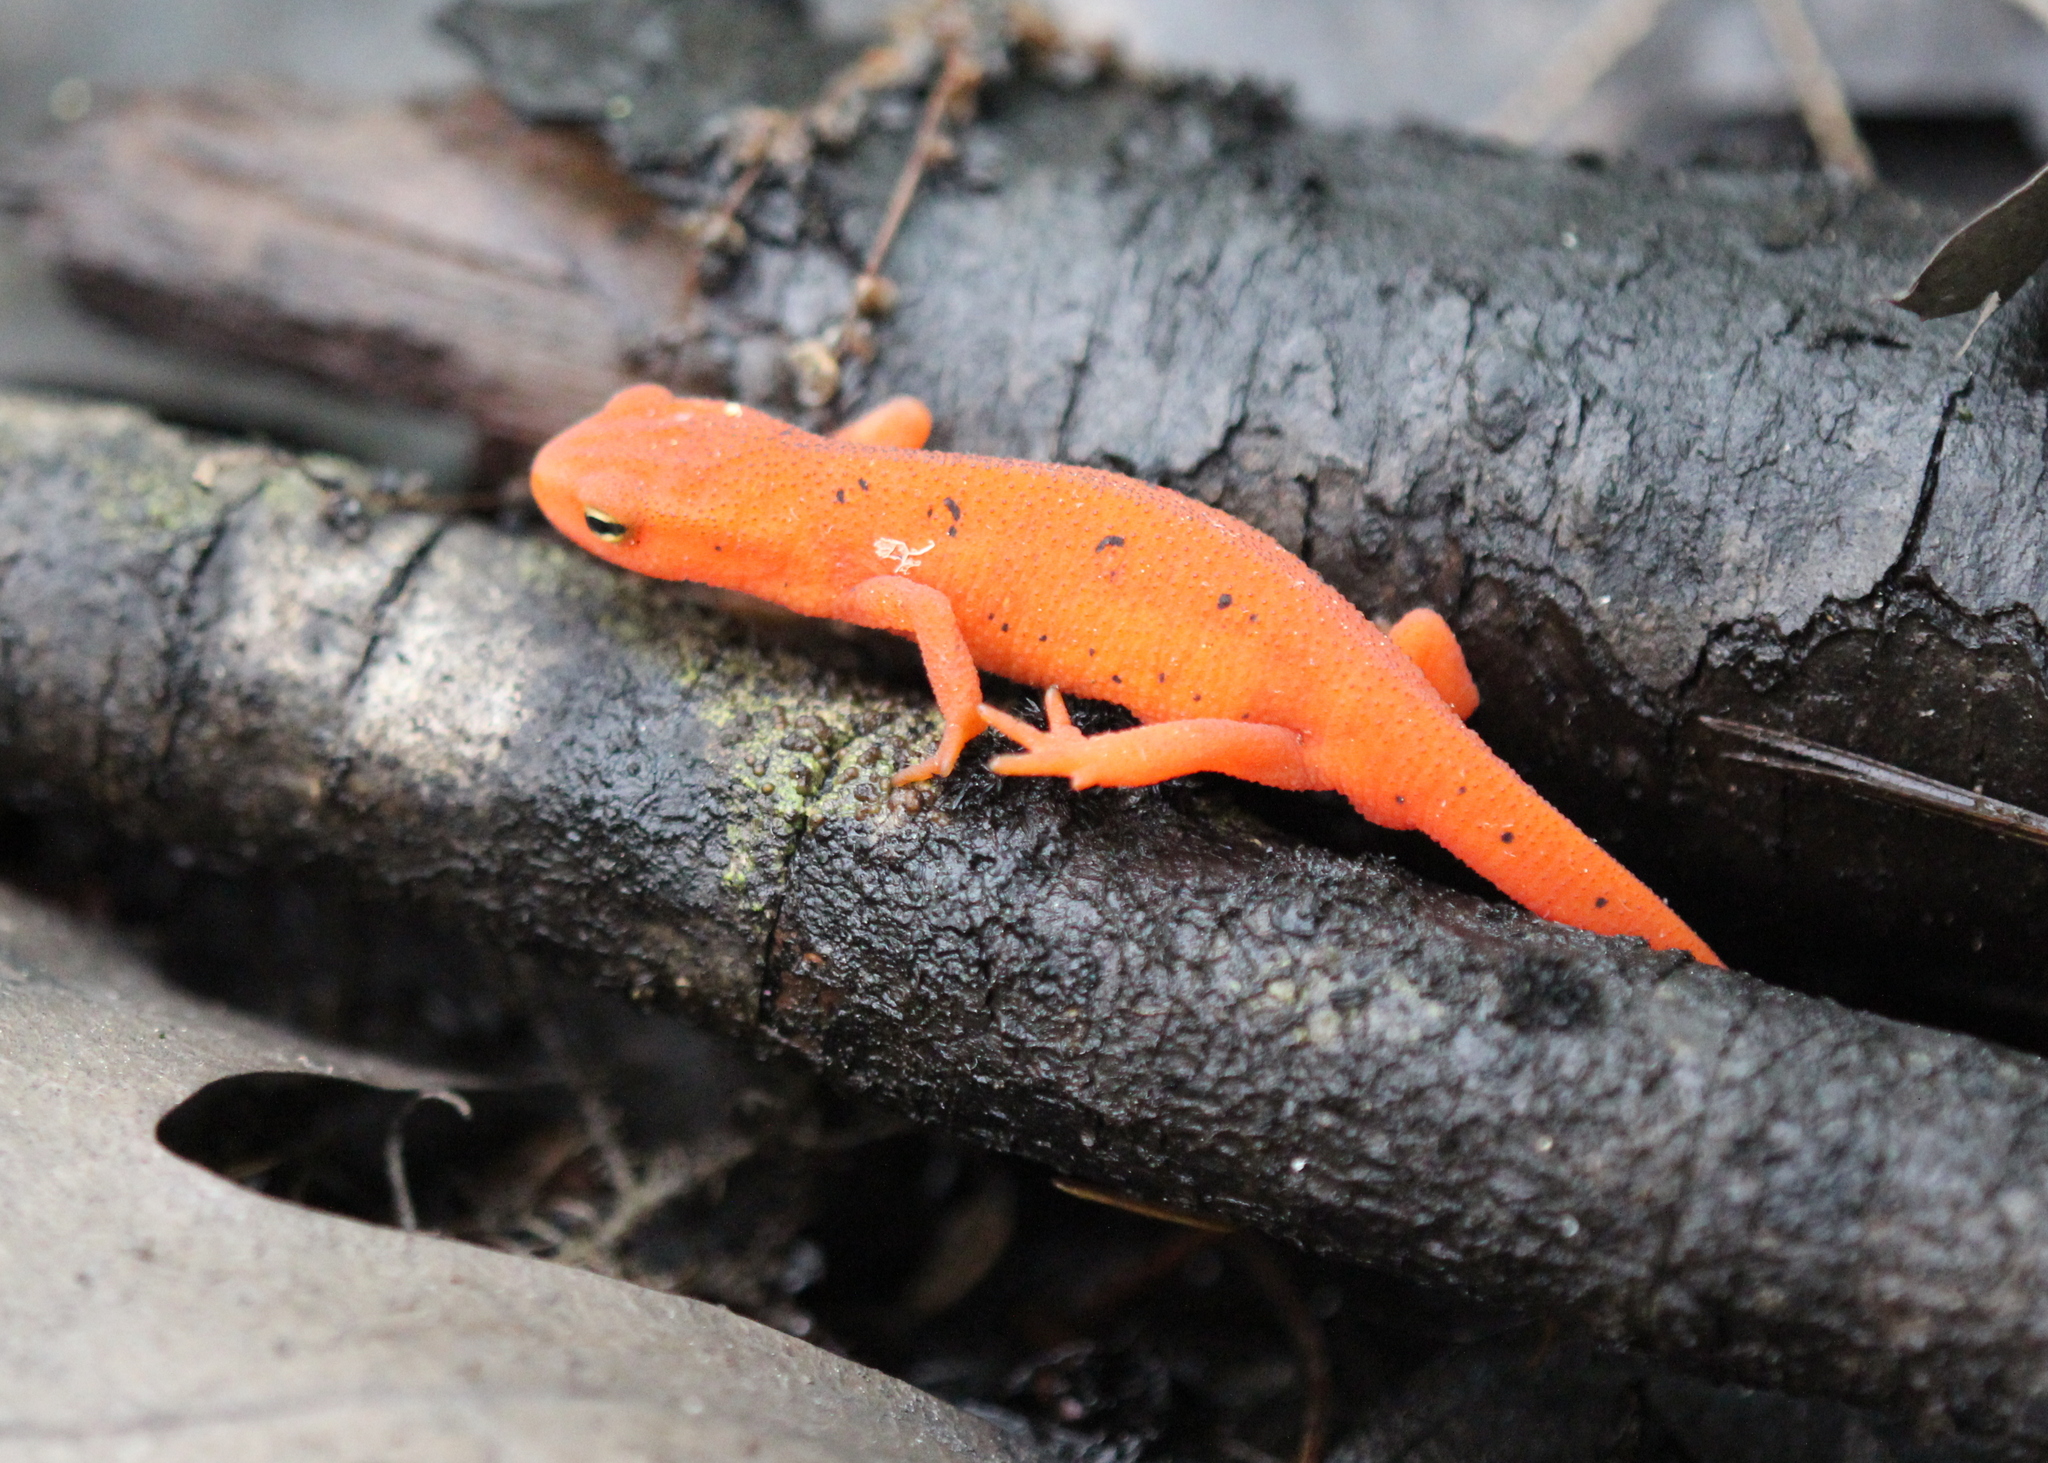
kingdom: Animalia
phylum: Chordata
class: Amphibia
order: Caudata
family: Salamandridae
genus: Notophthalmus
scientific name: Notophthalmus viridescens
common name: Eastern newt
